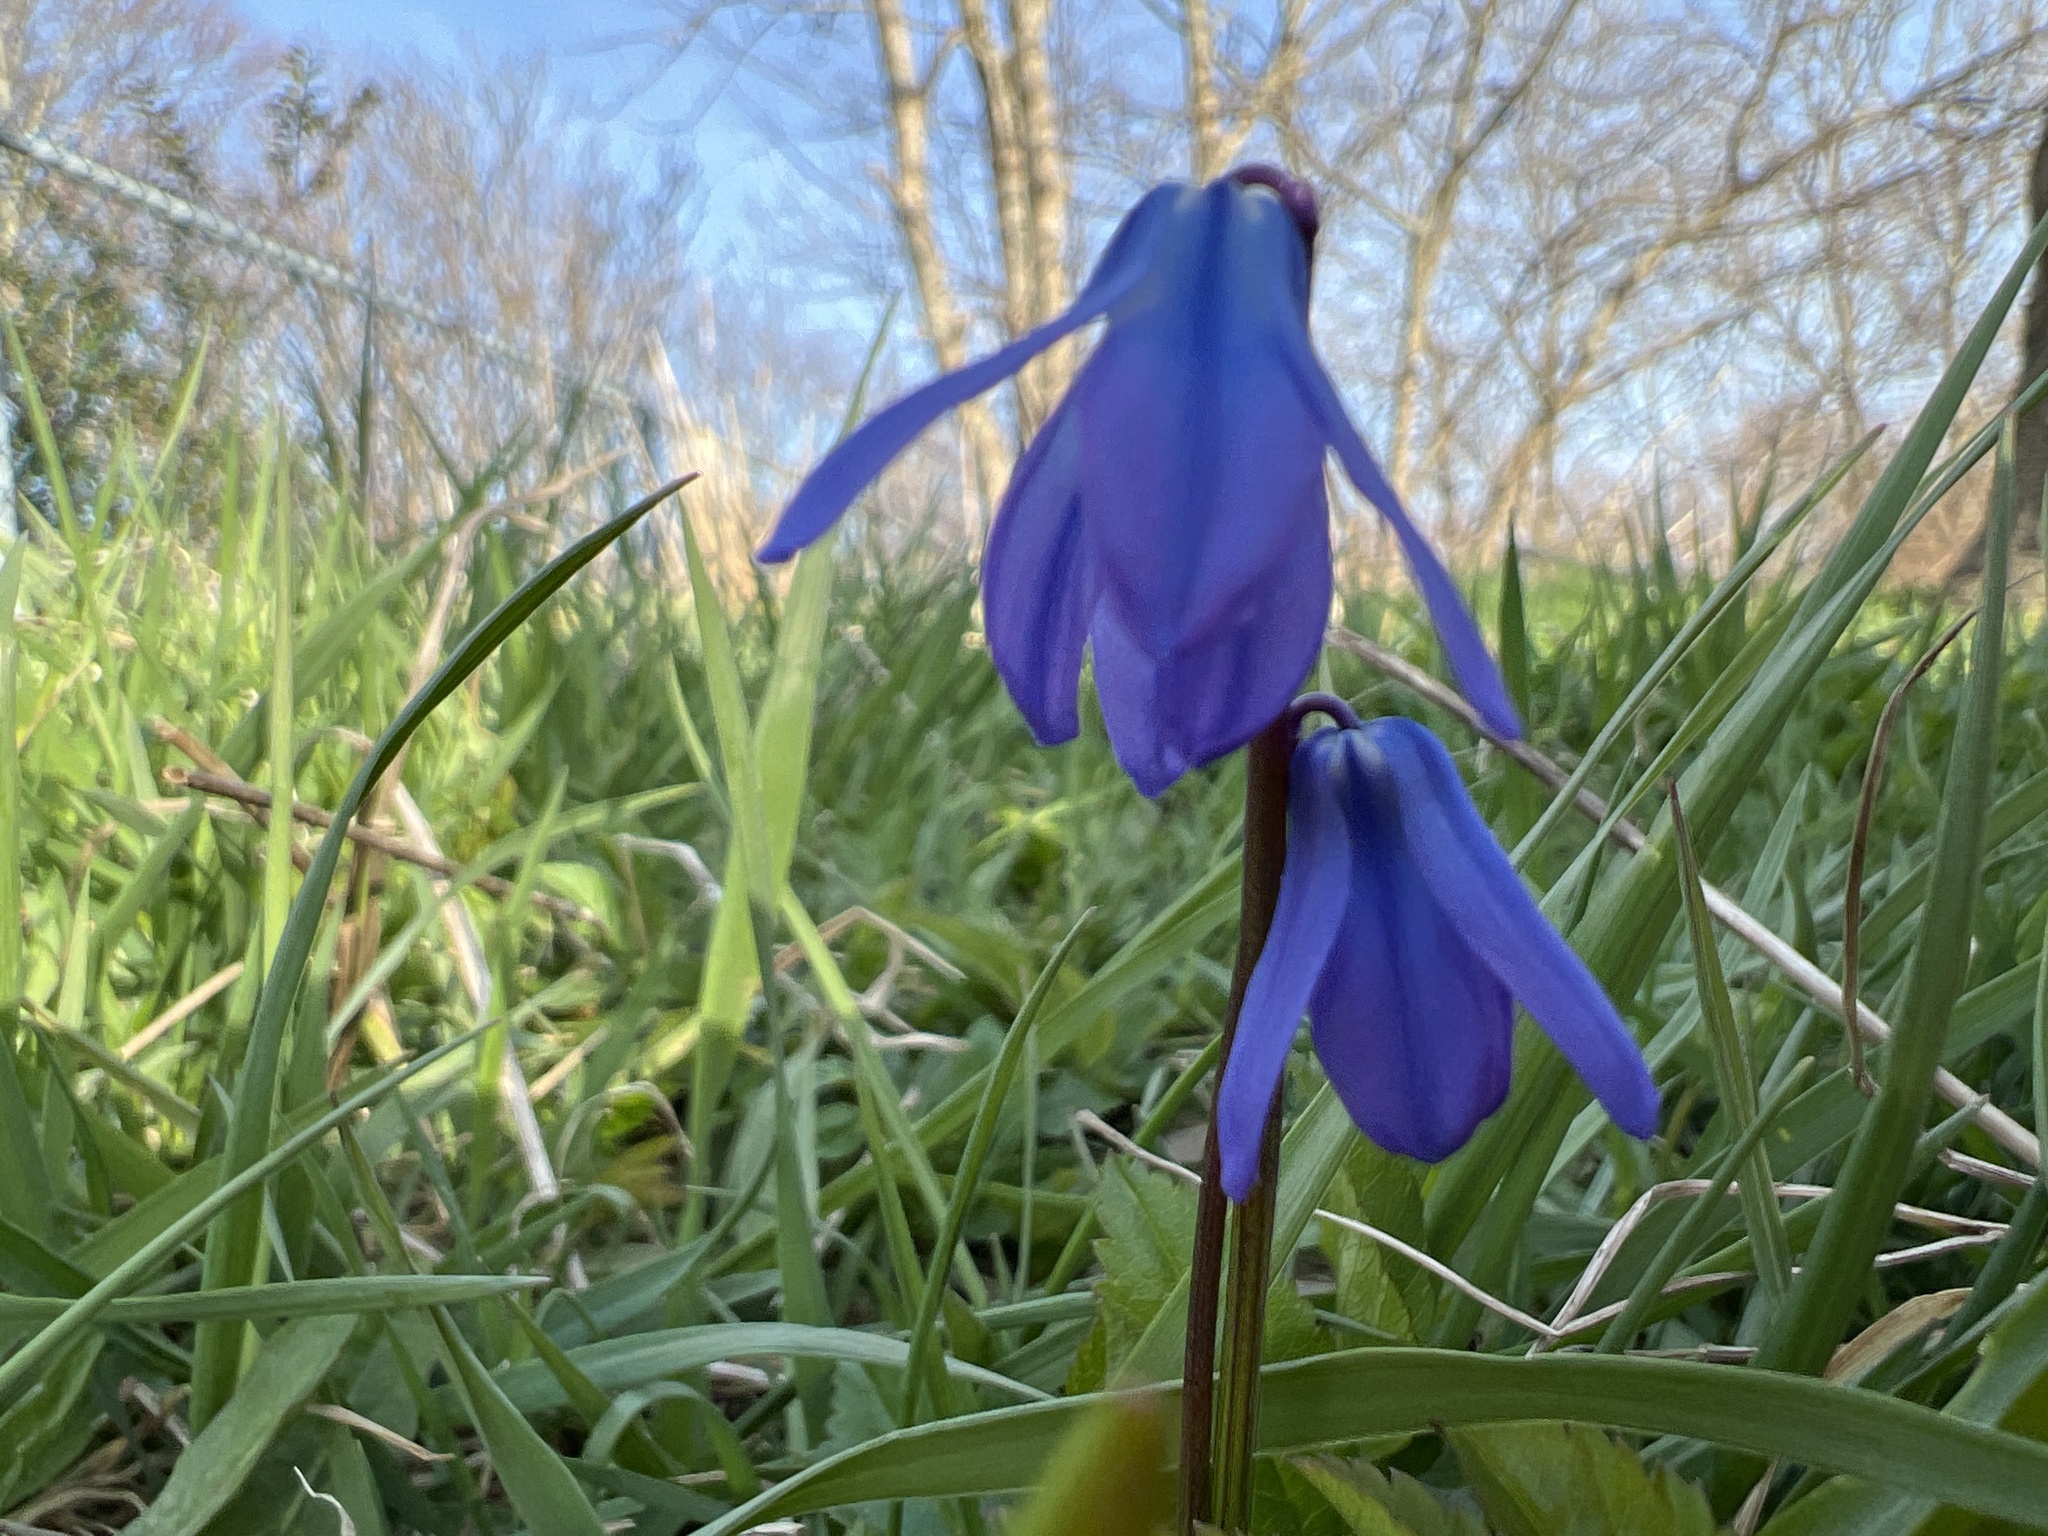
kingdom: Plantae
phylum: Tracheophyta
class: Liliopsida
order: Asparagales
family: Asparagaceae
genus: Scilla
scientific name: Scilla siberica
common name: Siberian squill
